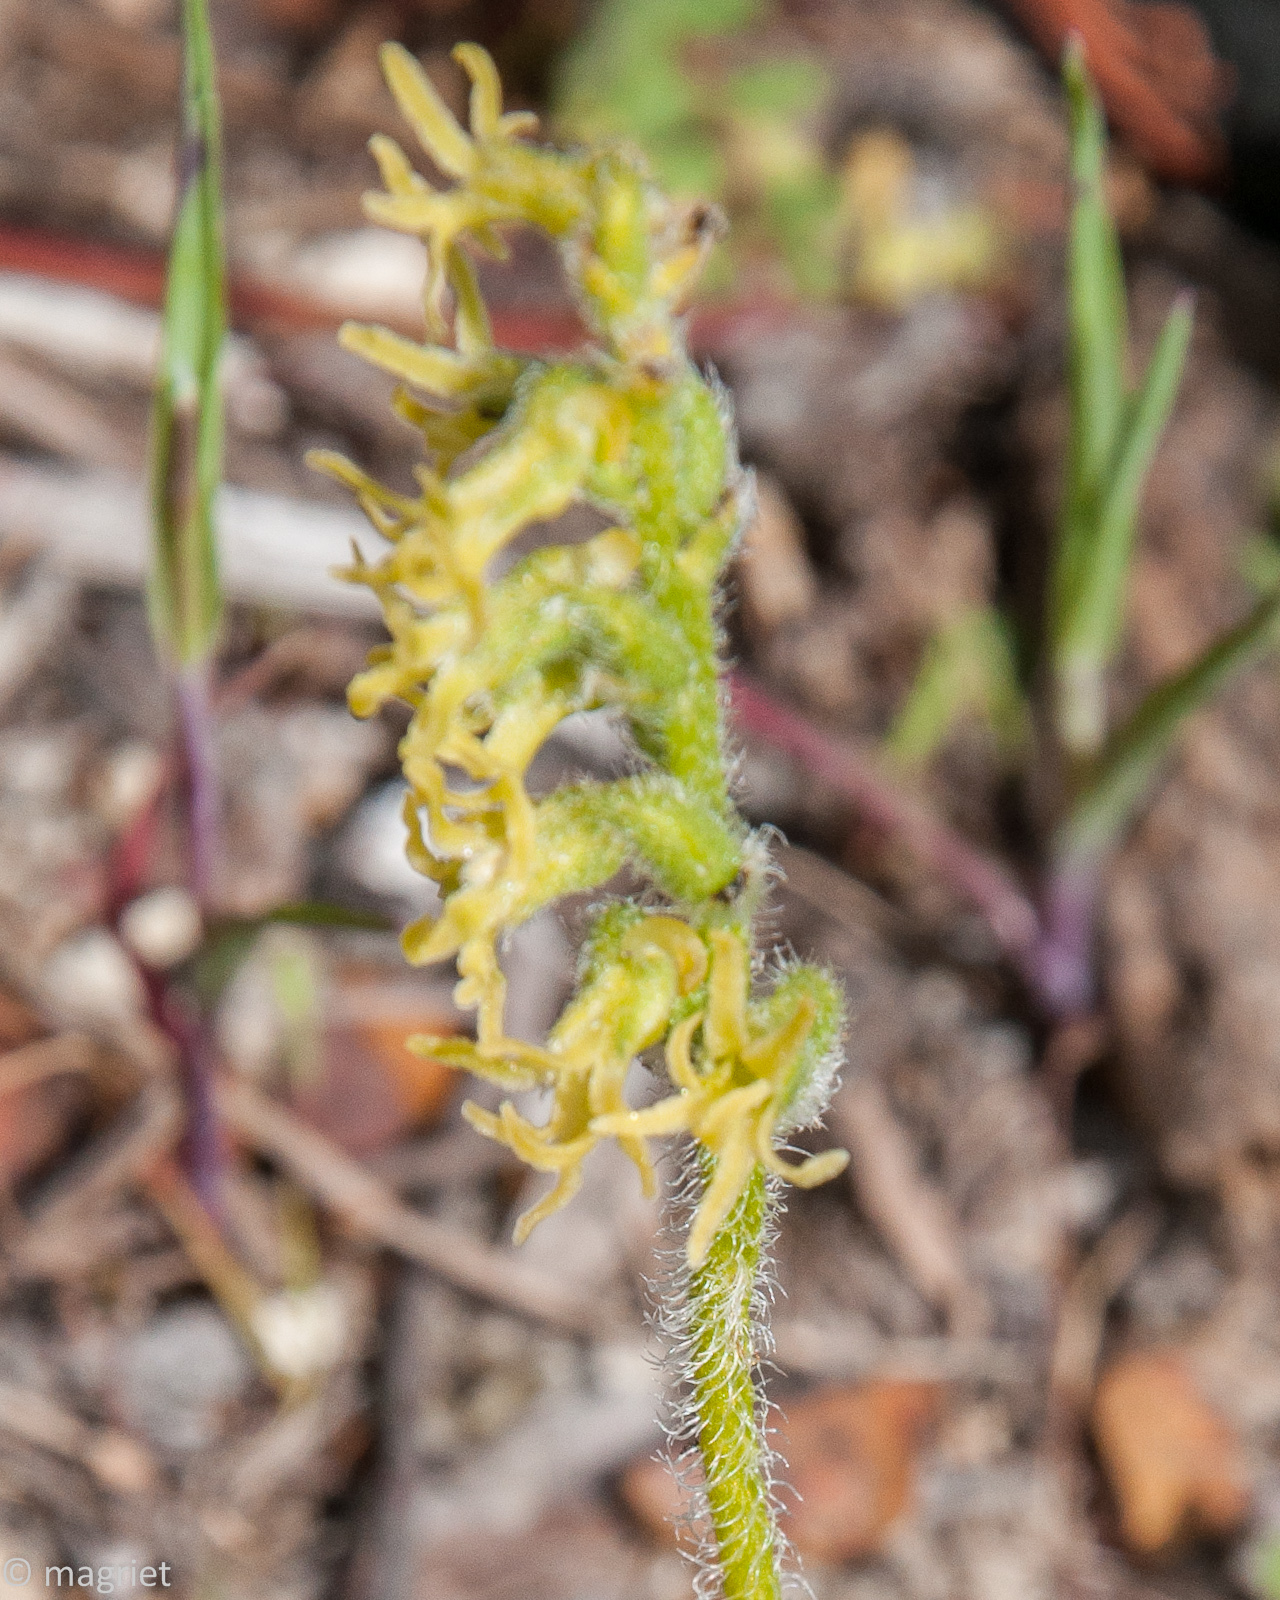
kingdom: Plantae
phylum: Tracheophyta
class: Liliopsida
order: Asparagales
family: Orchidaceae
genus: Holothrix
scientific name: Holothrix cernua
